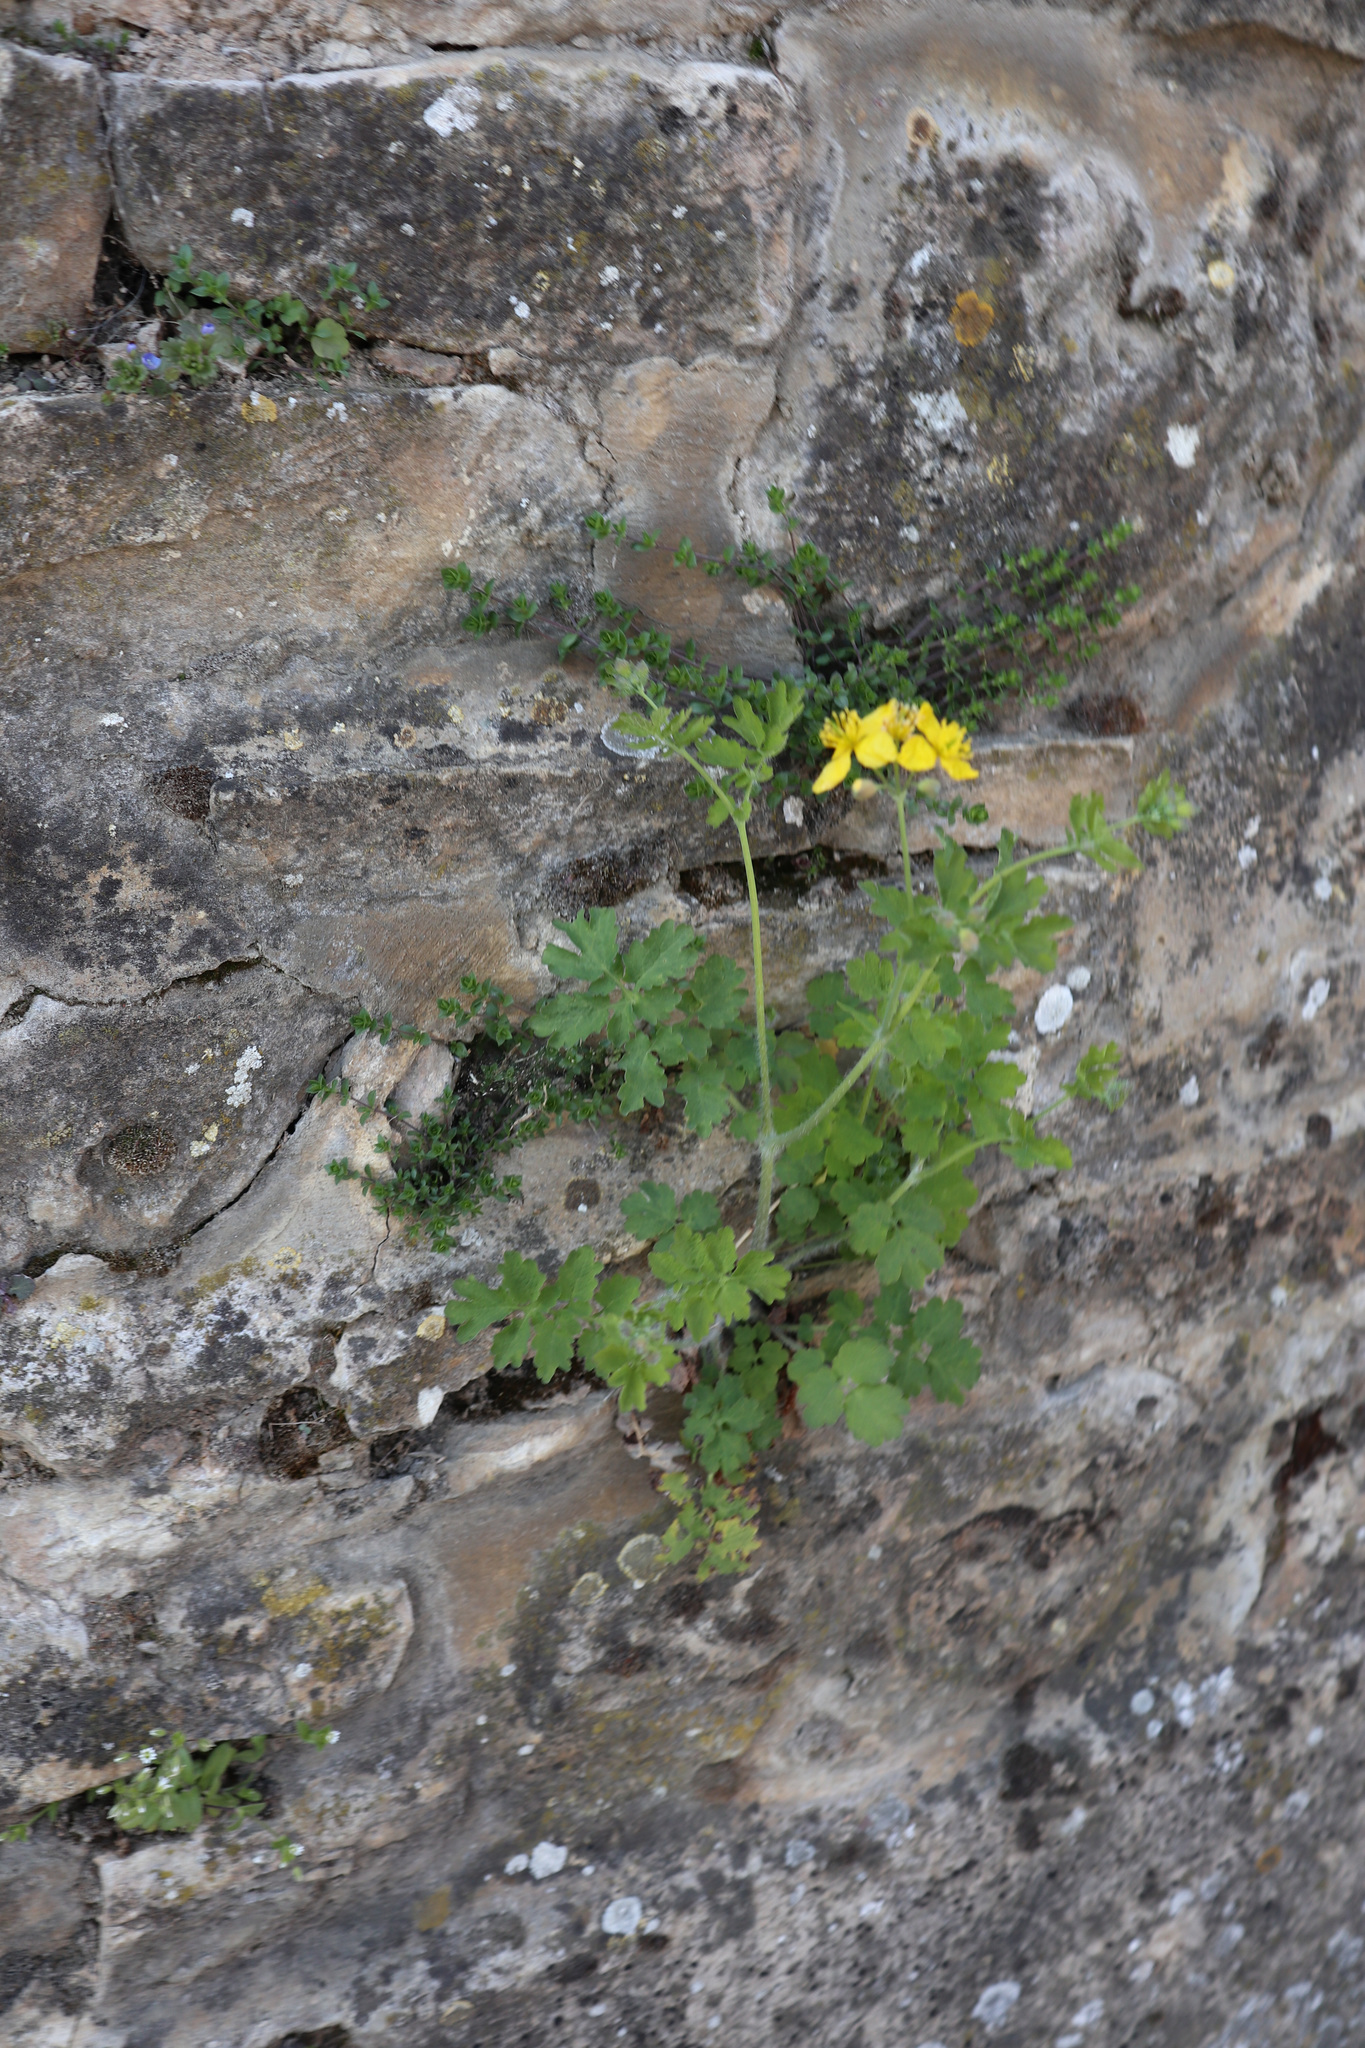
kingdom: Plantae
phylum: Tracheophyta
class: Magnoliopsida
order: Ranunculales
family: Papaveraceae
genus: Chelidonium
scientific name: Chelidonium majus
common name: Greater celandine
